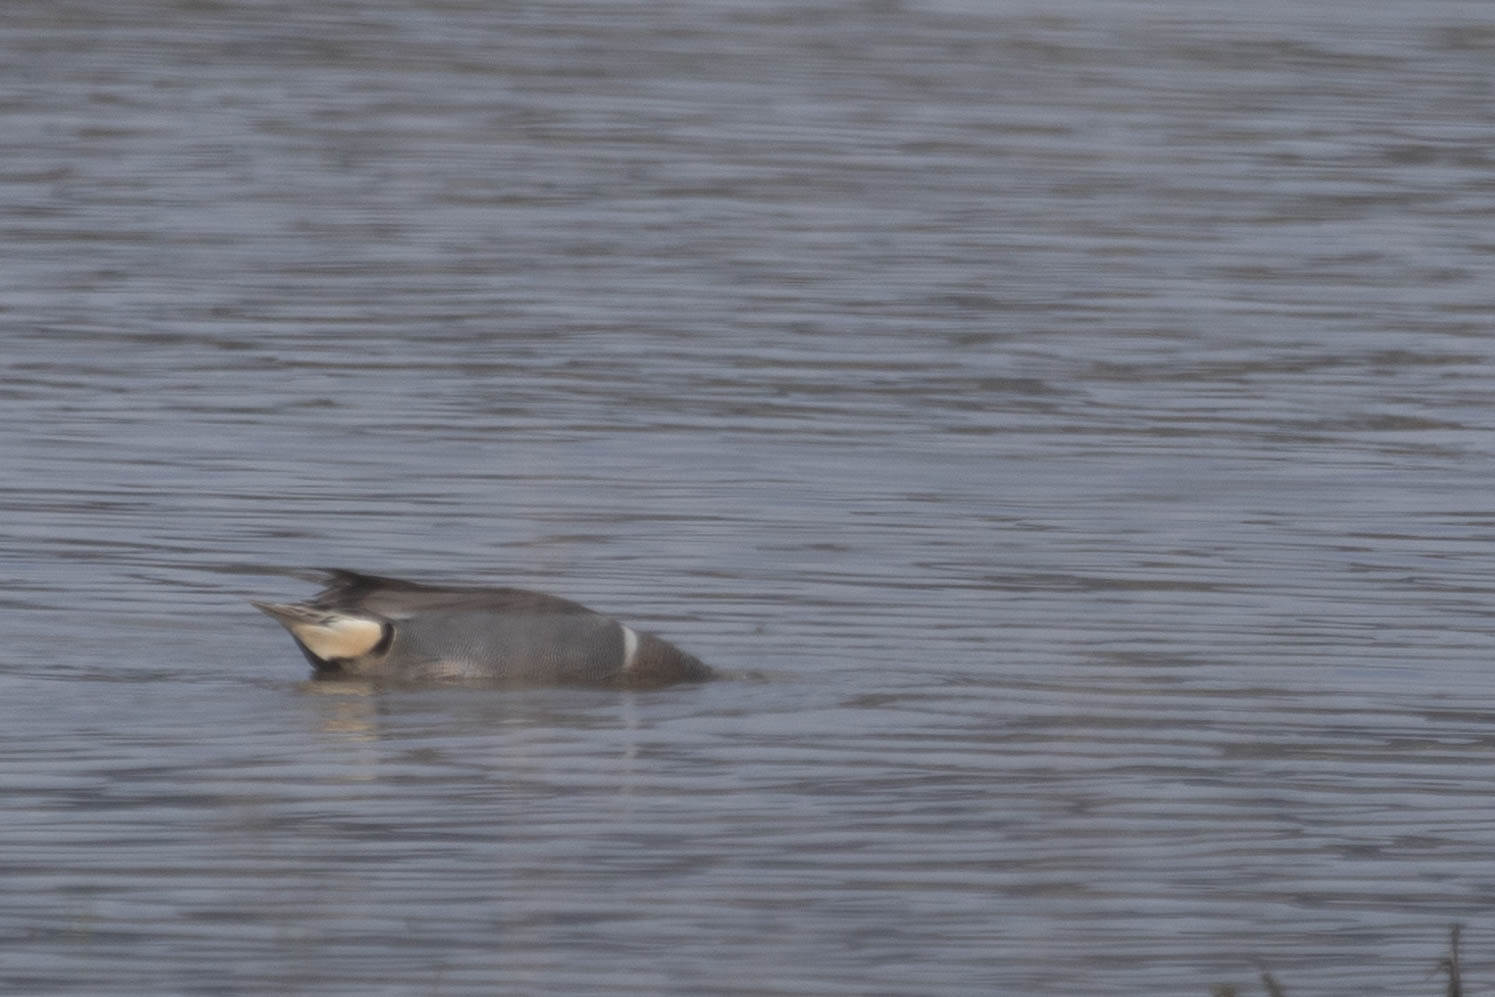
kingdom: Animalia
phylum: Chordata
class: Aves
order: Anseriformes
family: Anatidae
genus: Anas
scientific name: Anas crecca
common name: Eurasian teal
